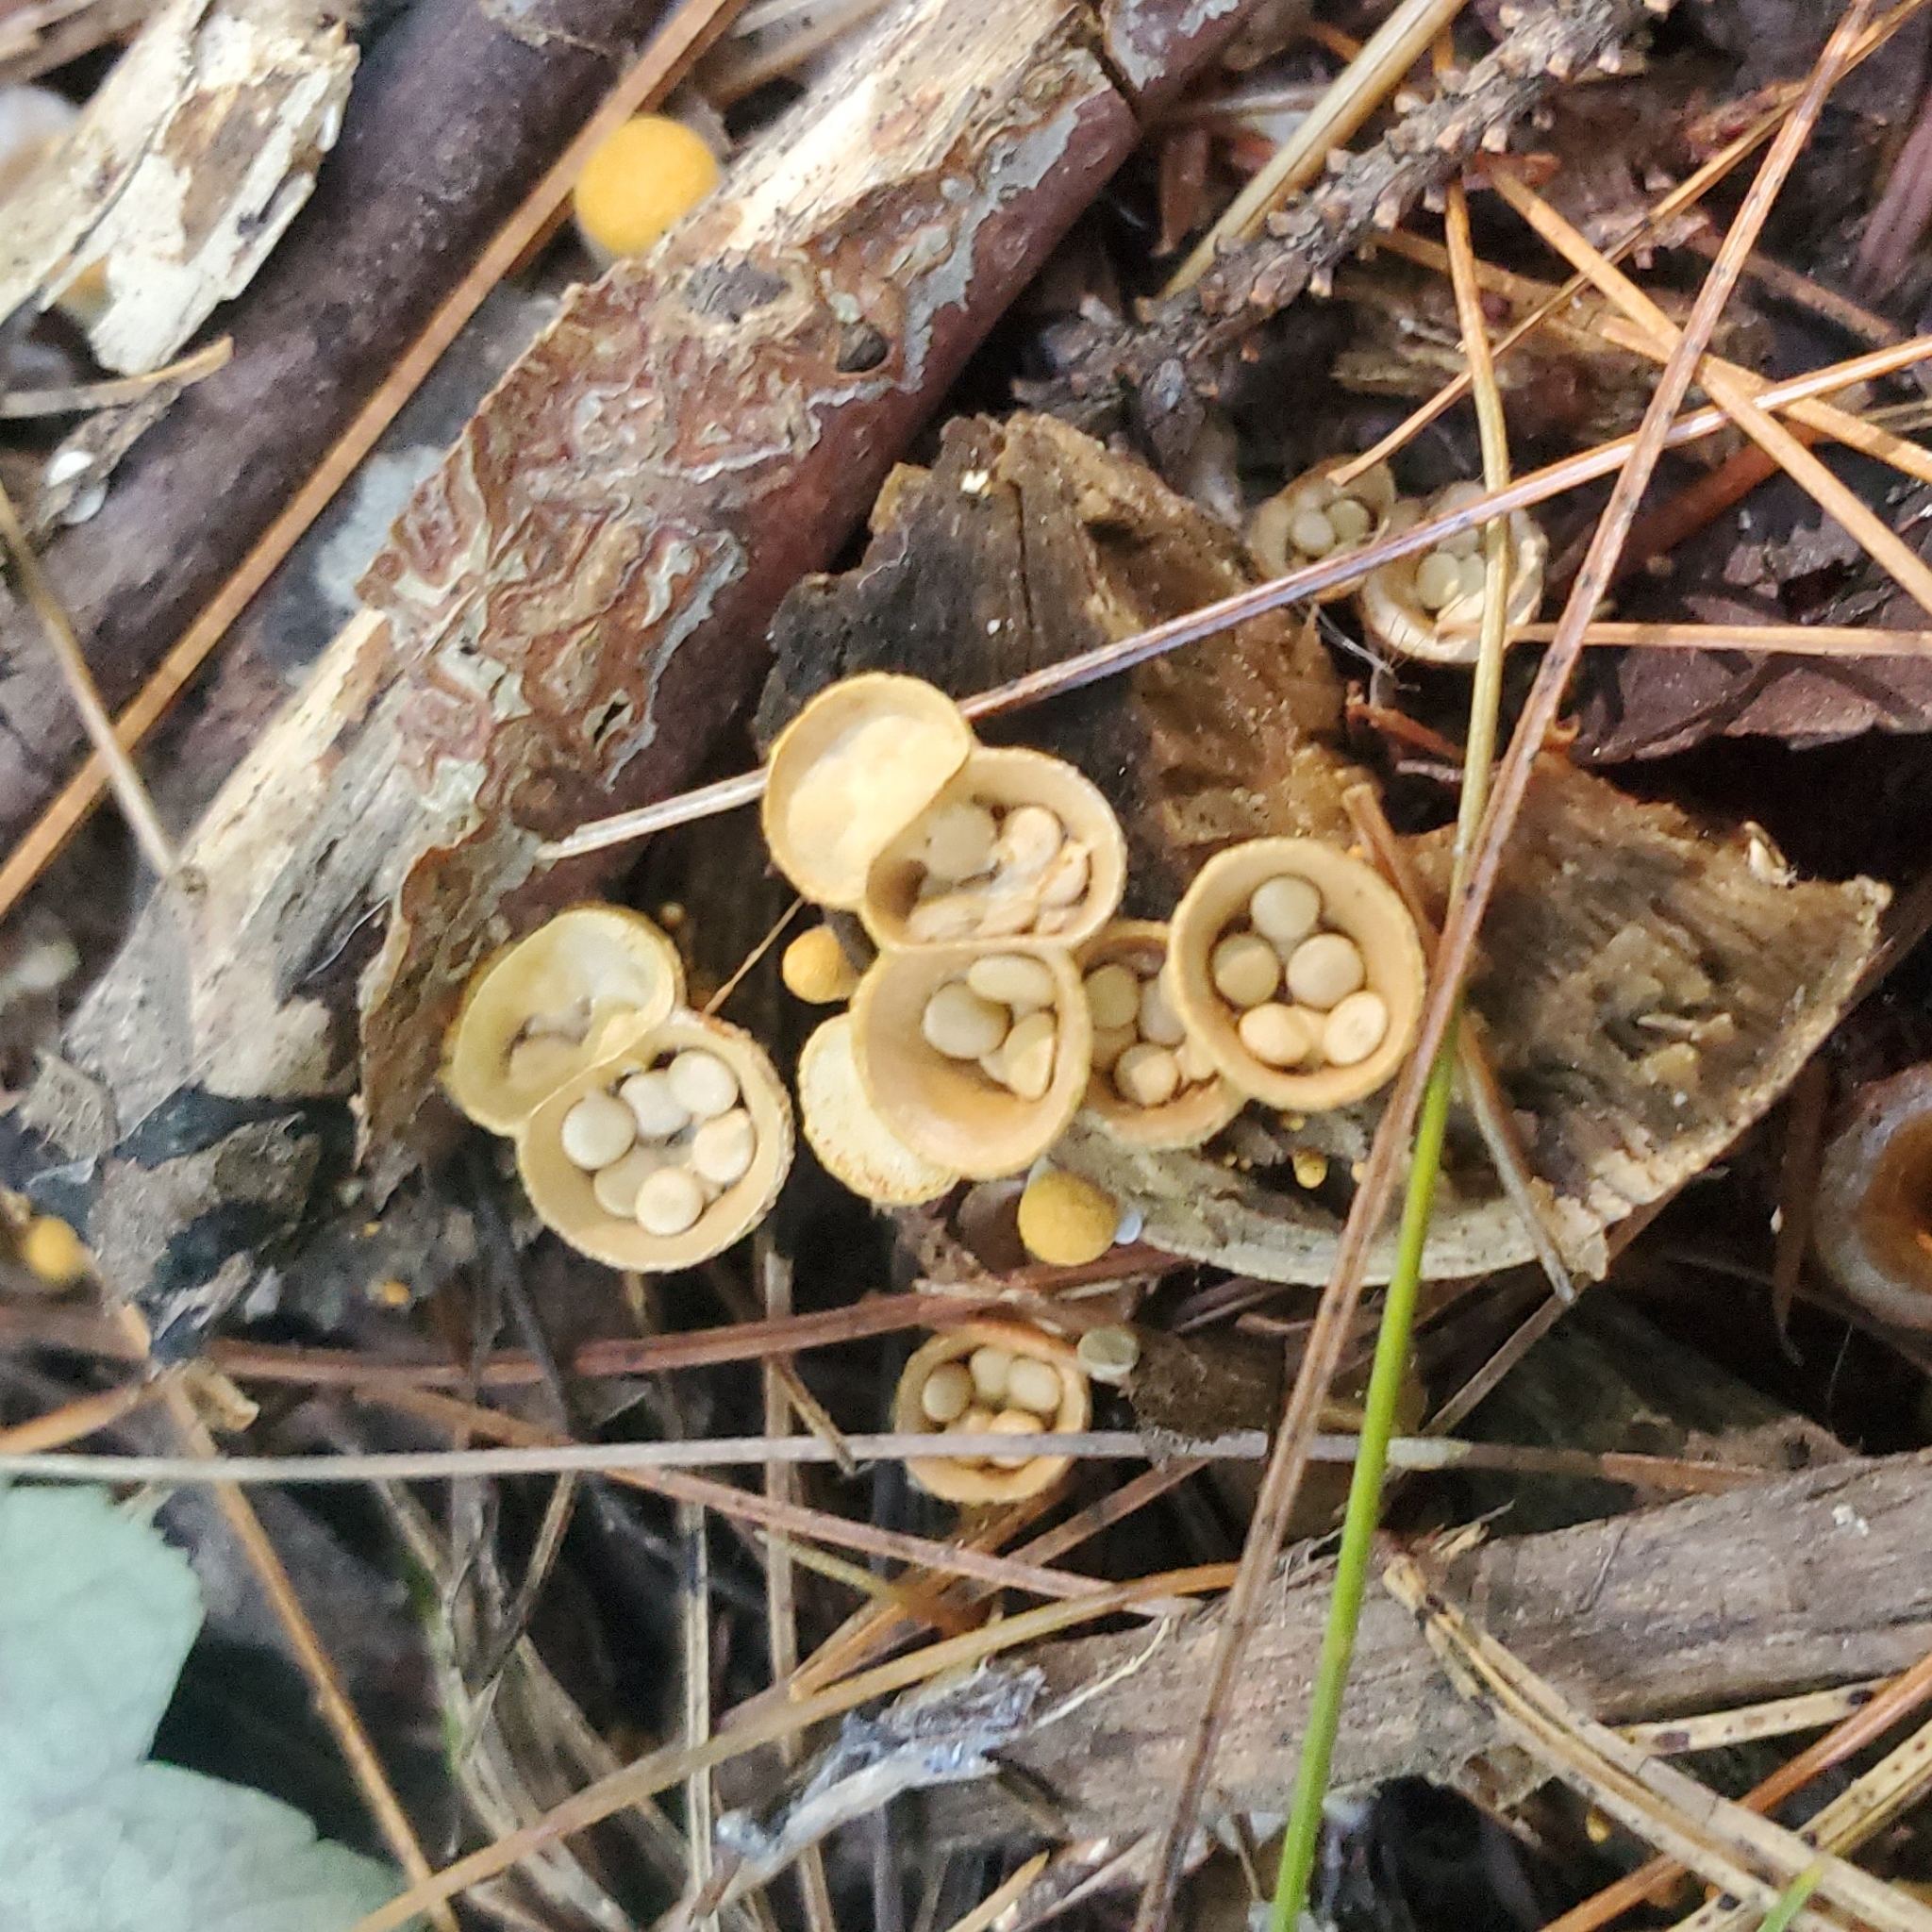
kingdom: Fungi
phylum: Basidiomycota
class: Agaricomycetes
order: Agaricales
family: Nidulariaceae
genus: Crucibulum
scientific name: Crucibulum laeve
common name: Common bird's nest
